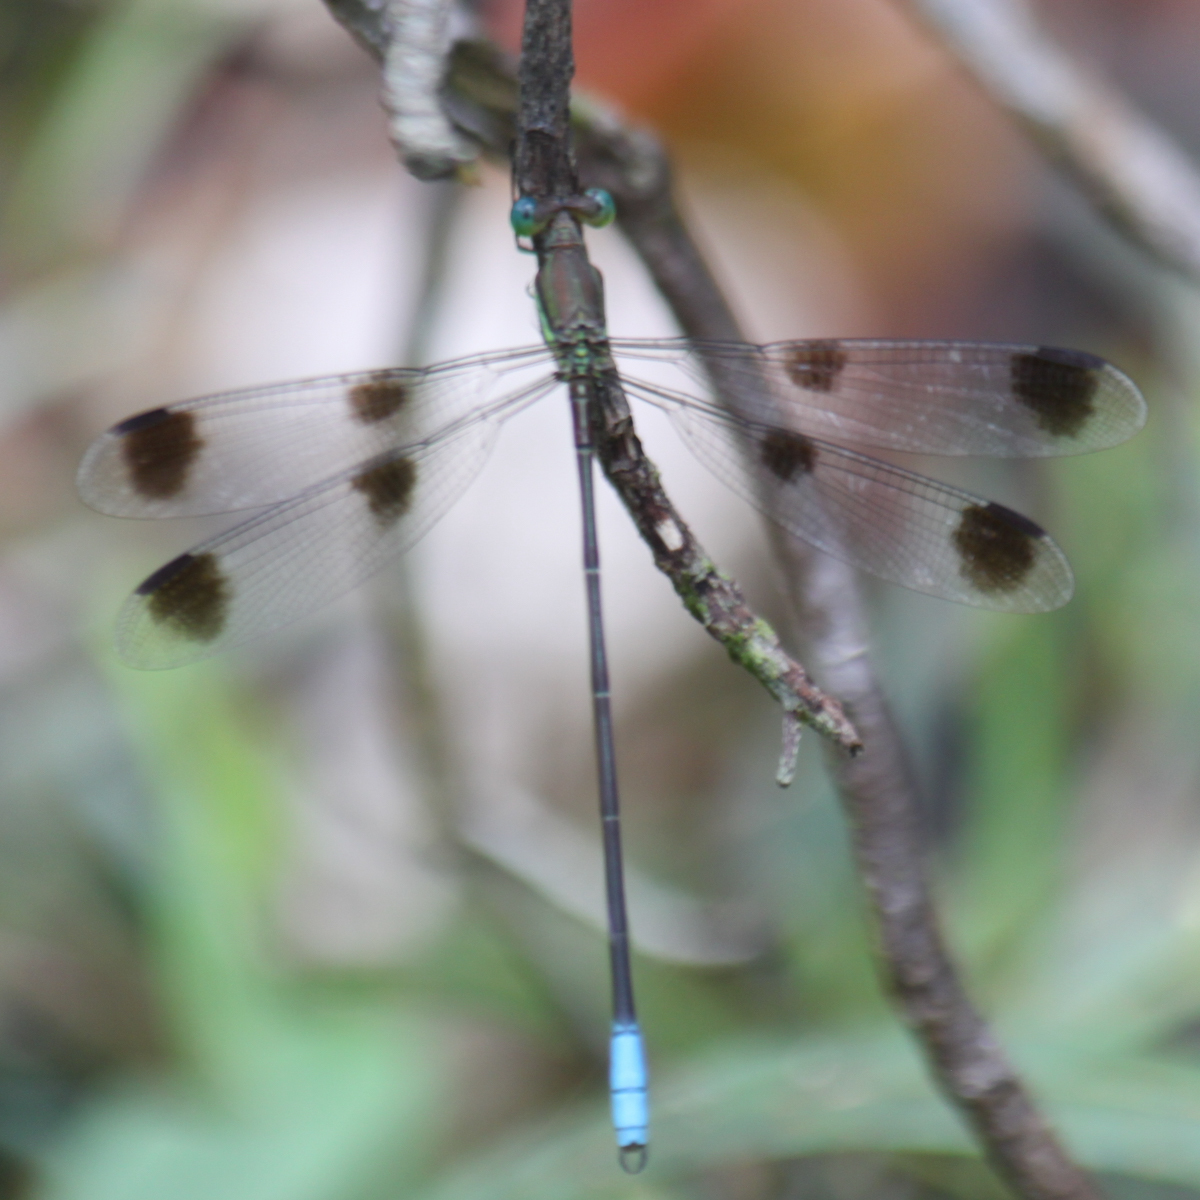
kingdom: Animalia
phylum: Arthropoda
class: Insecta
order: Odonata
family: Lestidae
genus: Orolestes
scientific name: Orolestes octomaculatus
